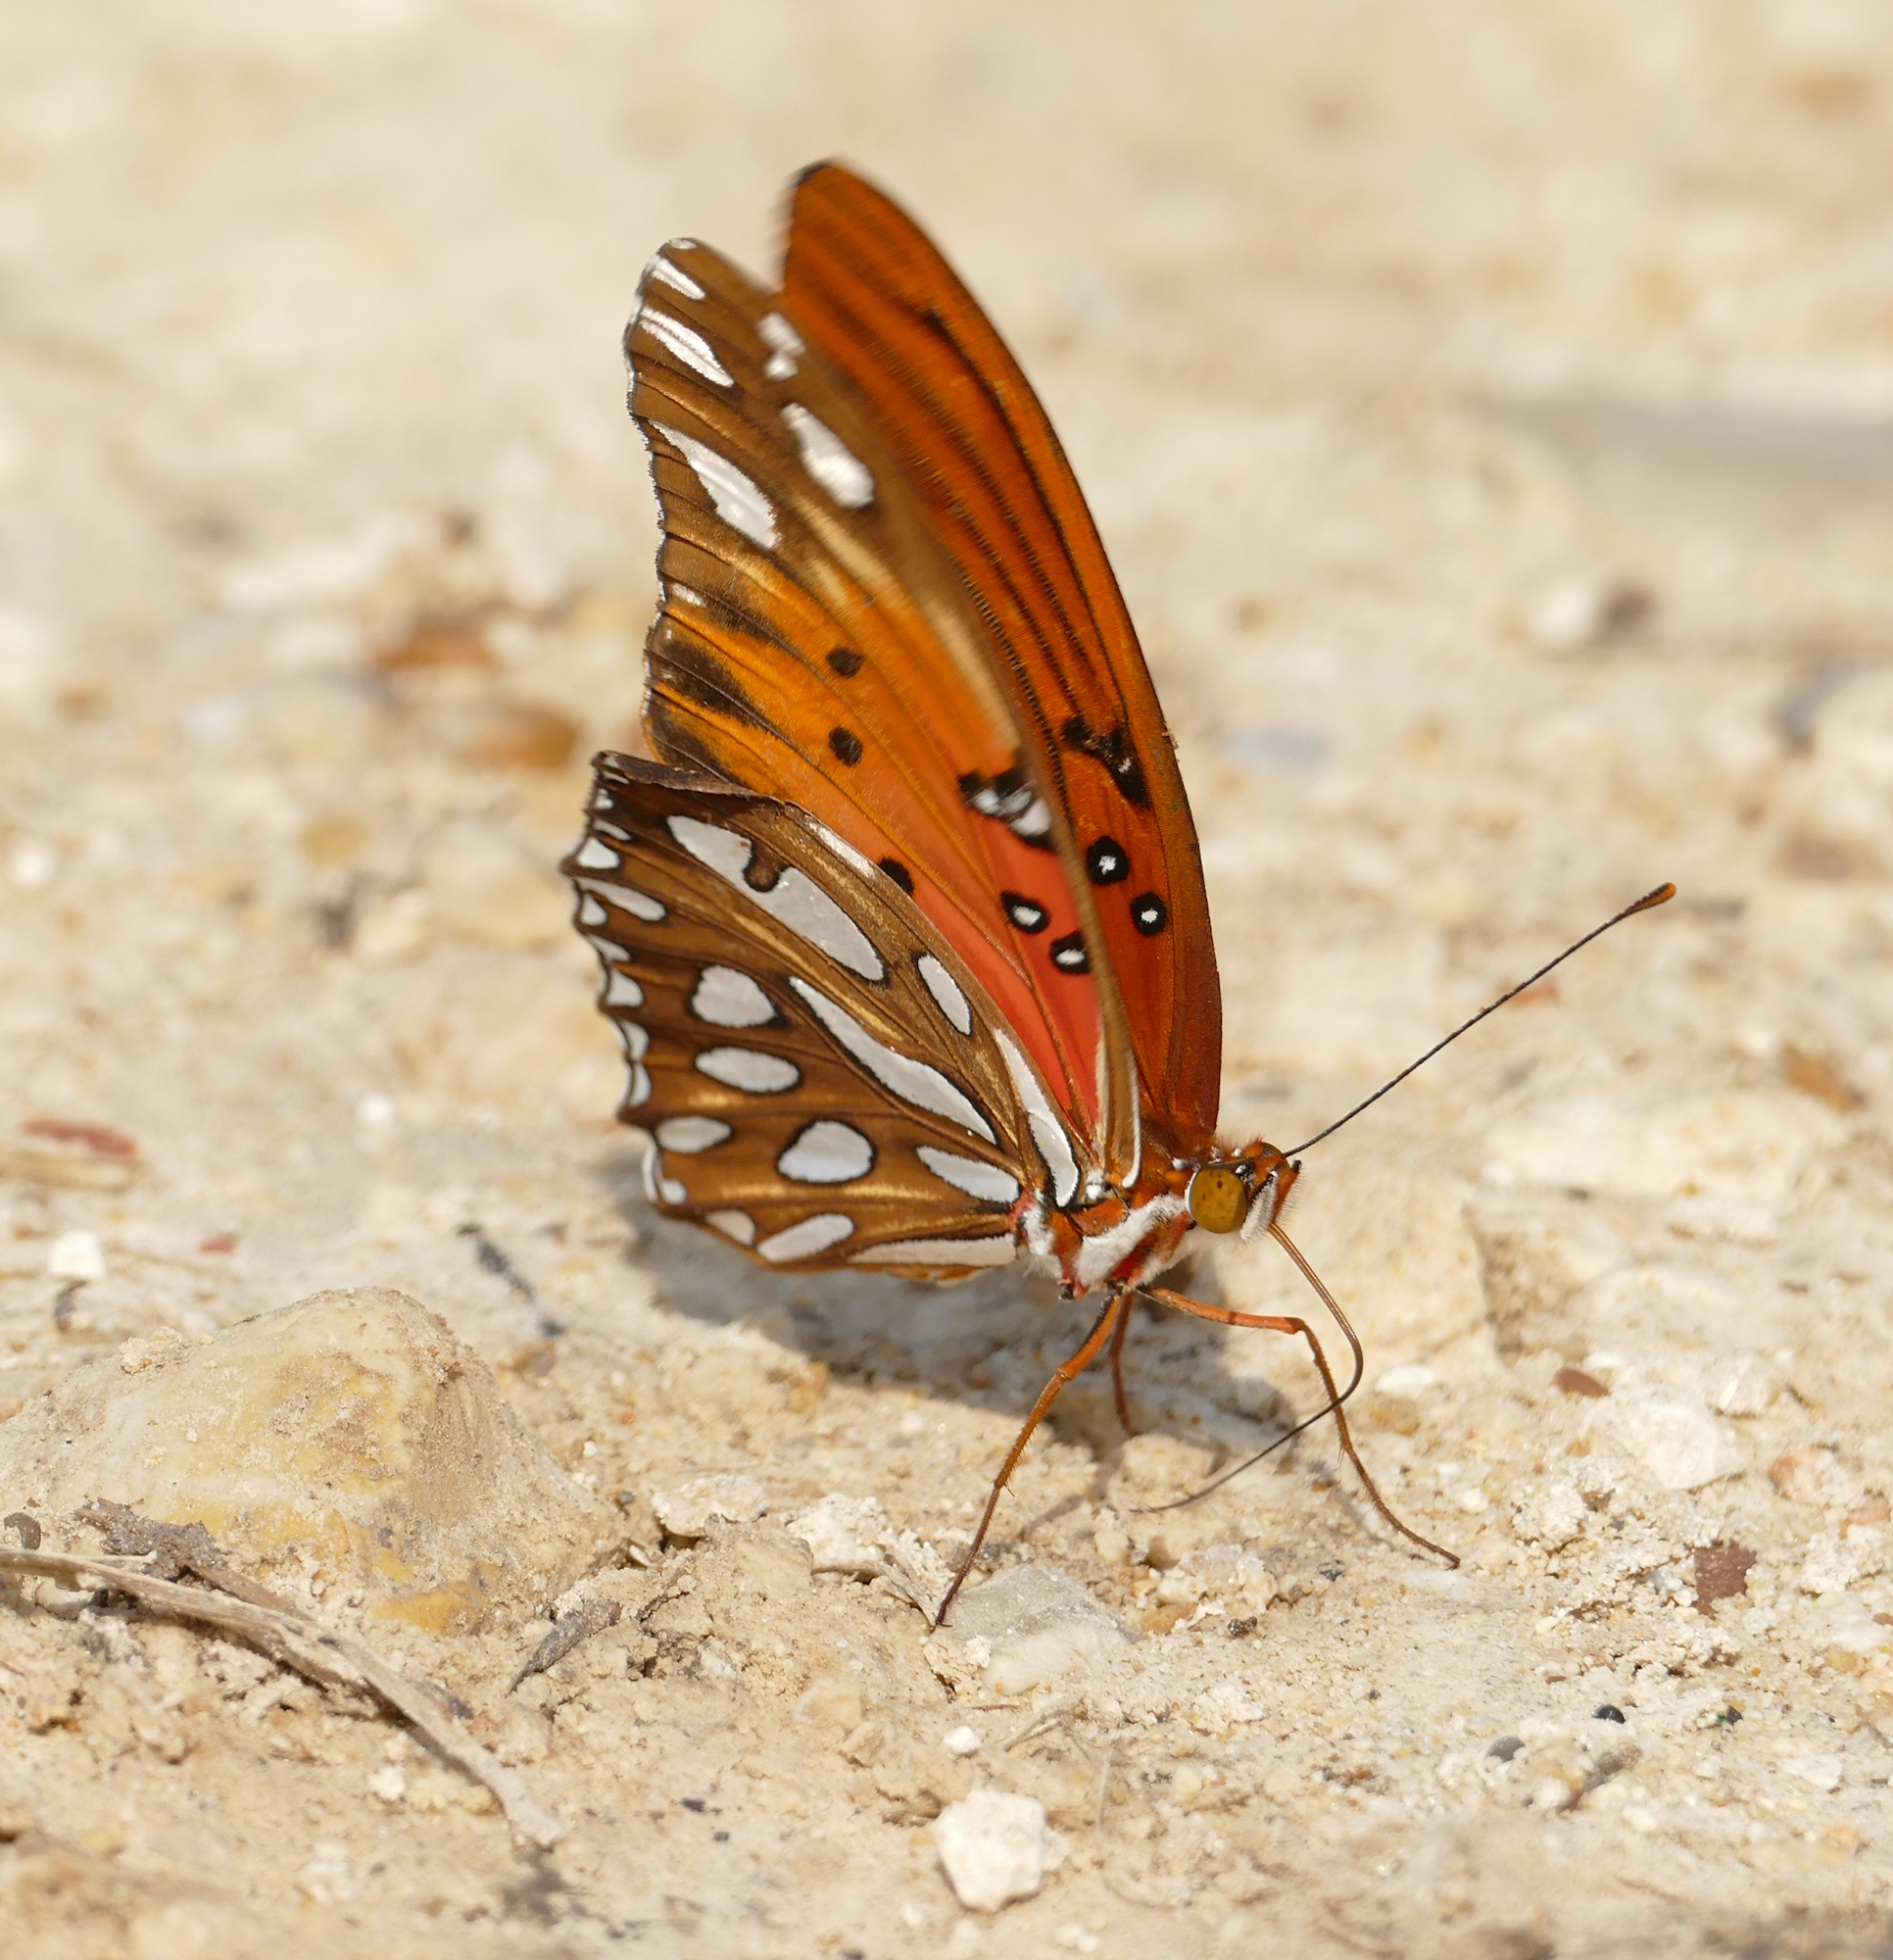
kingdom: Animalia
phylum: Arthropoda
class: Insecta
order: Lepidoptera
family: Nymphalidae
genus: Dione
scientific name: Dione vanillae
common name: Gulf fritillary
